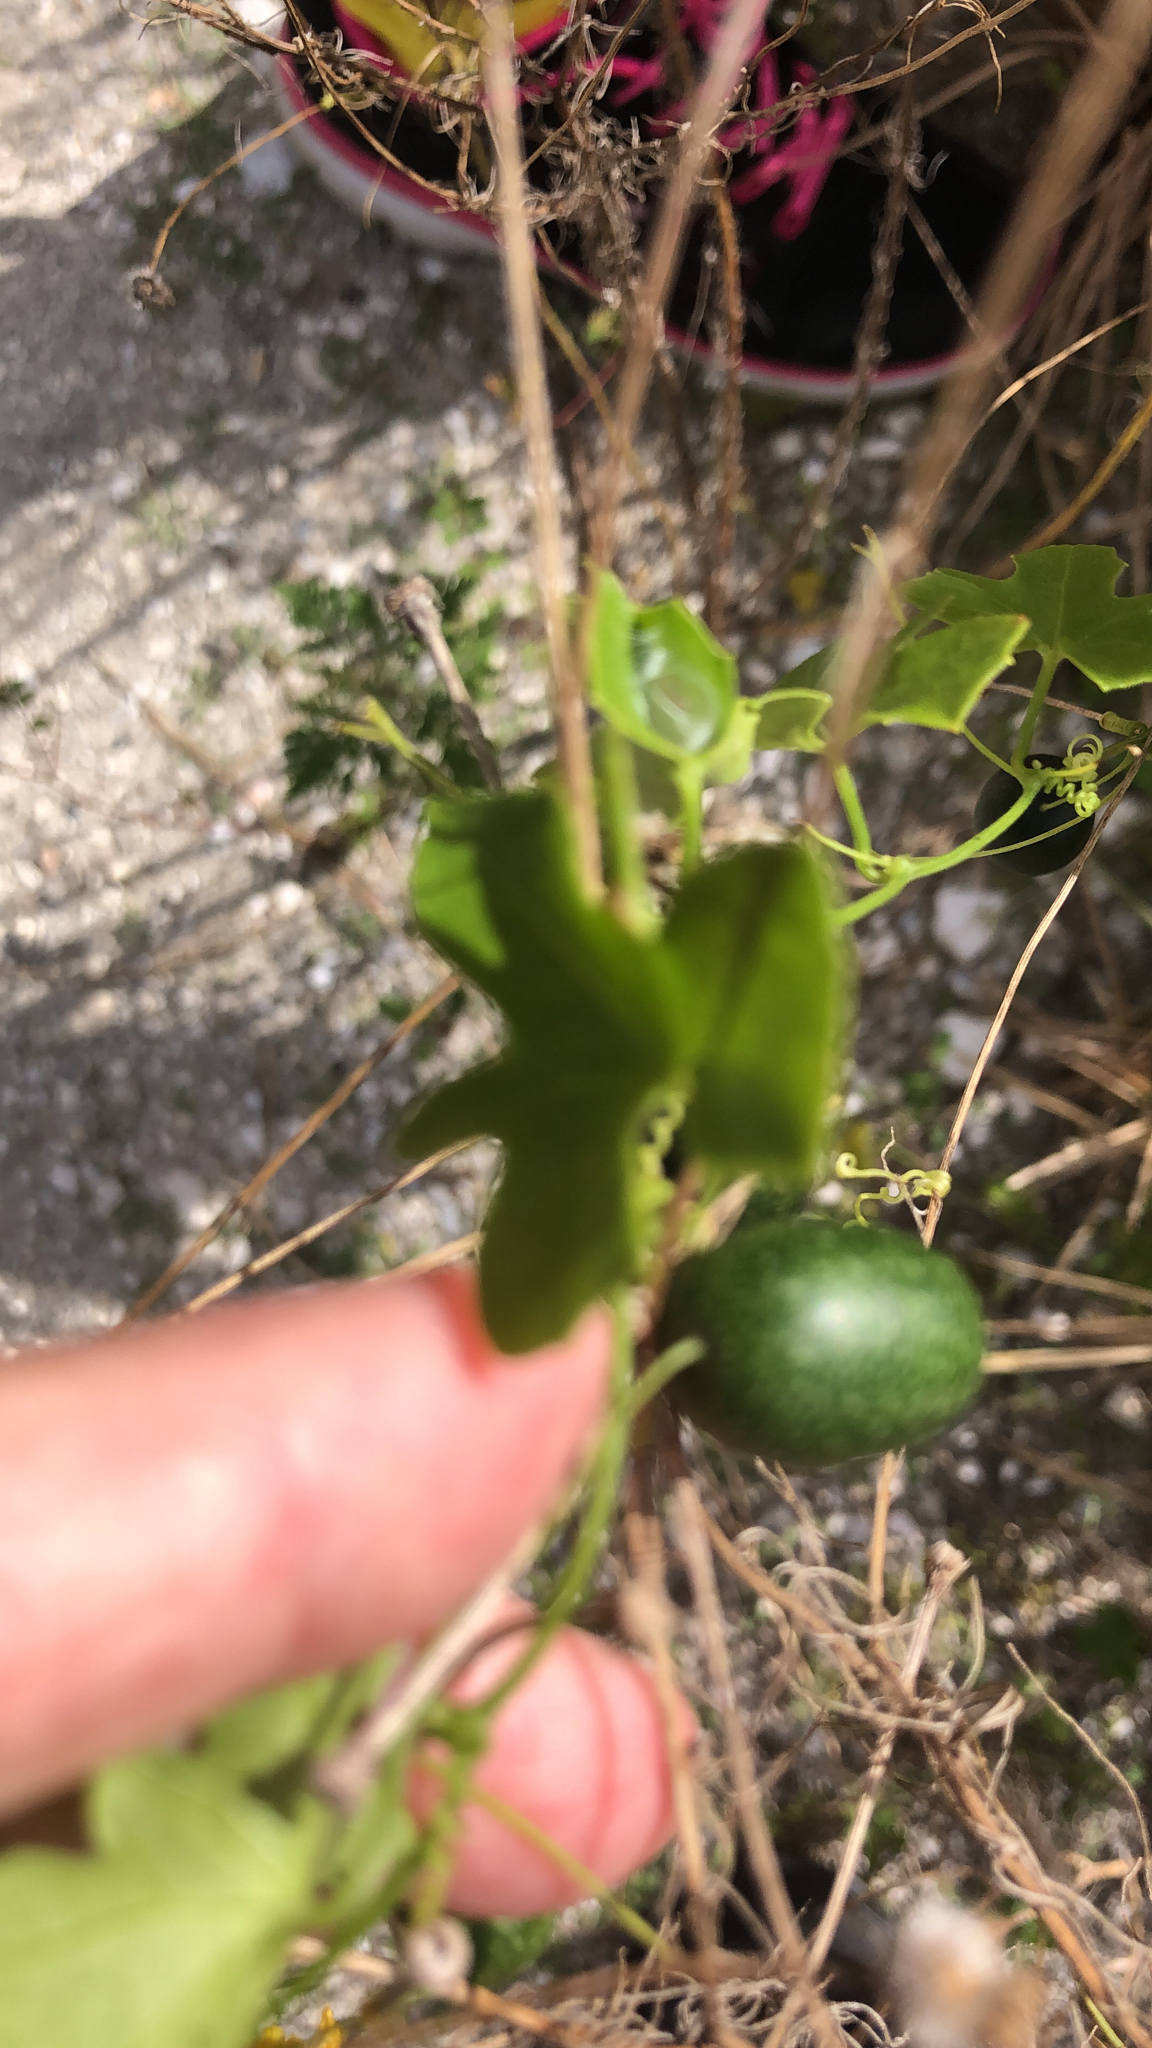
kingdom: Plantae
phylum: Tracheophyta
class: Magnoliopsida
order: Cucurbitales
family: Cucurbitaceae
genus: Melothria
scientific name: Melothria pendula
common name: Creeping-cucumber
